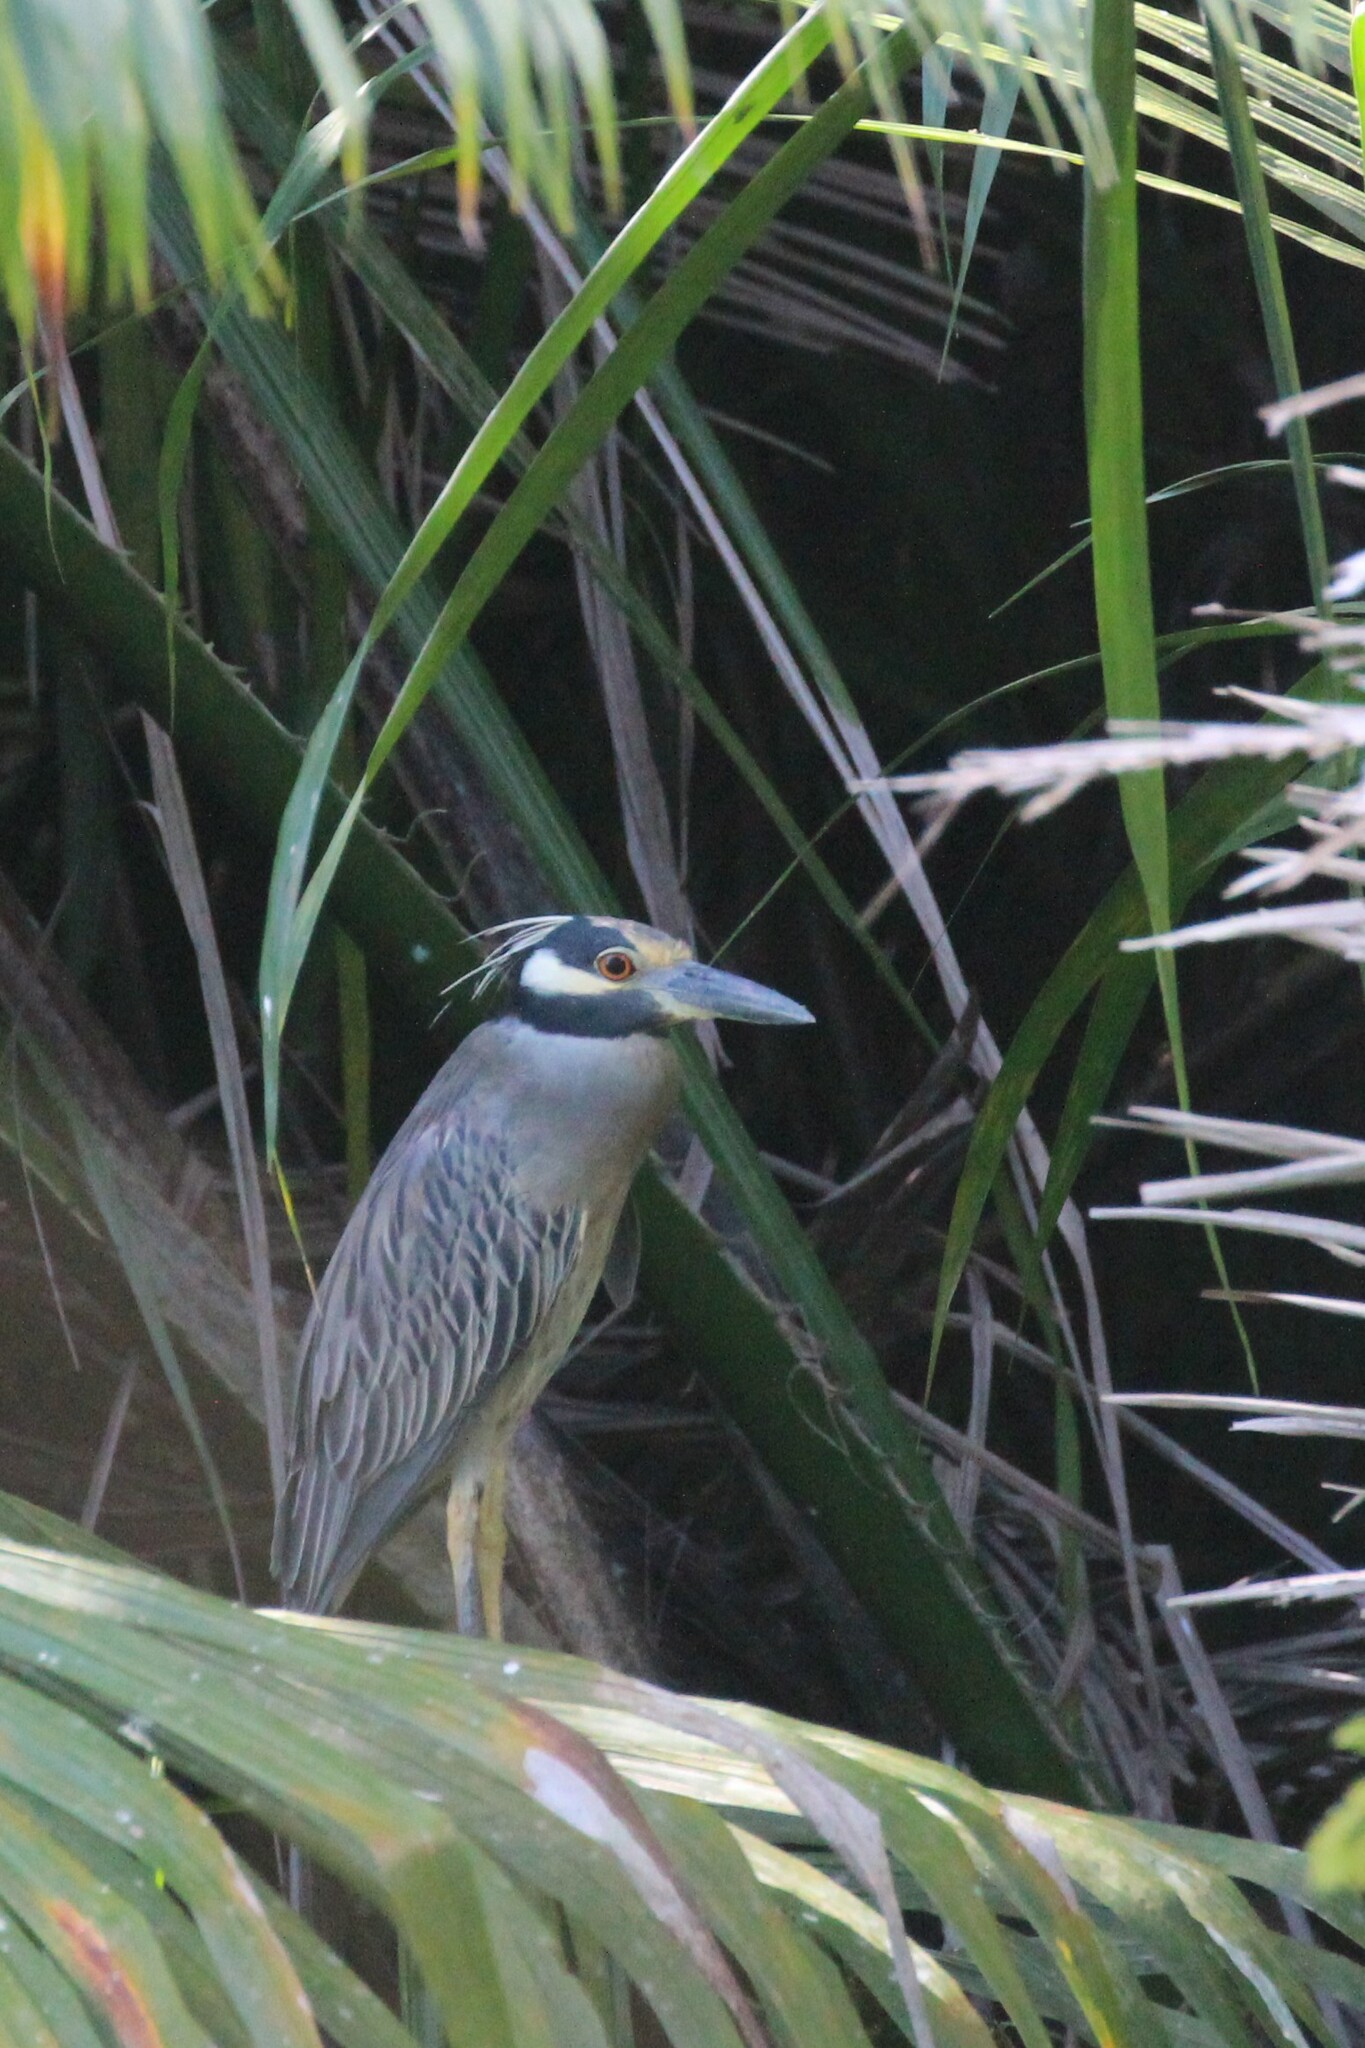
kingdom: Animalia
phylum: Chordata
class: Aves
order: Pelecaniformes
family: Ardeidae
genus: Nyctanassa
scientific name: Nyctanassa violacea
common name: Yellow-crowned night heron
